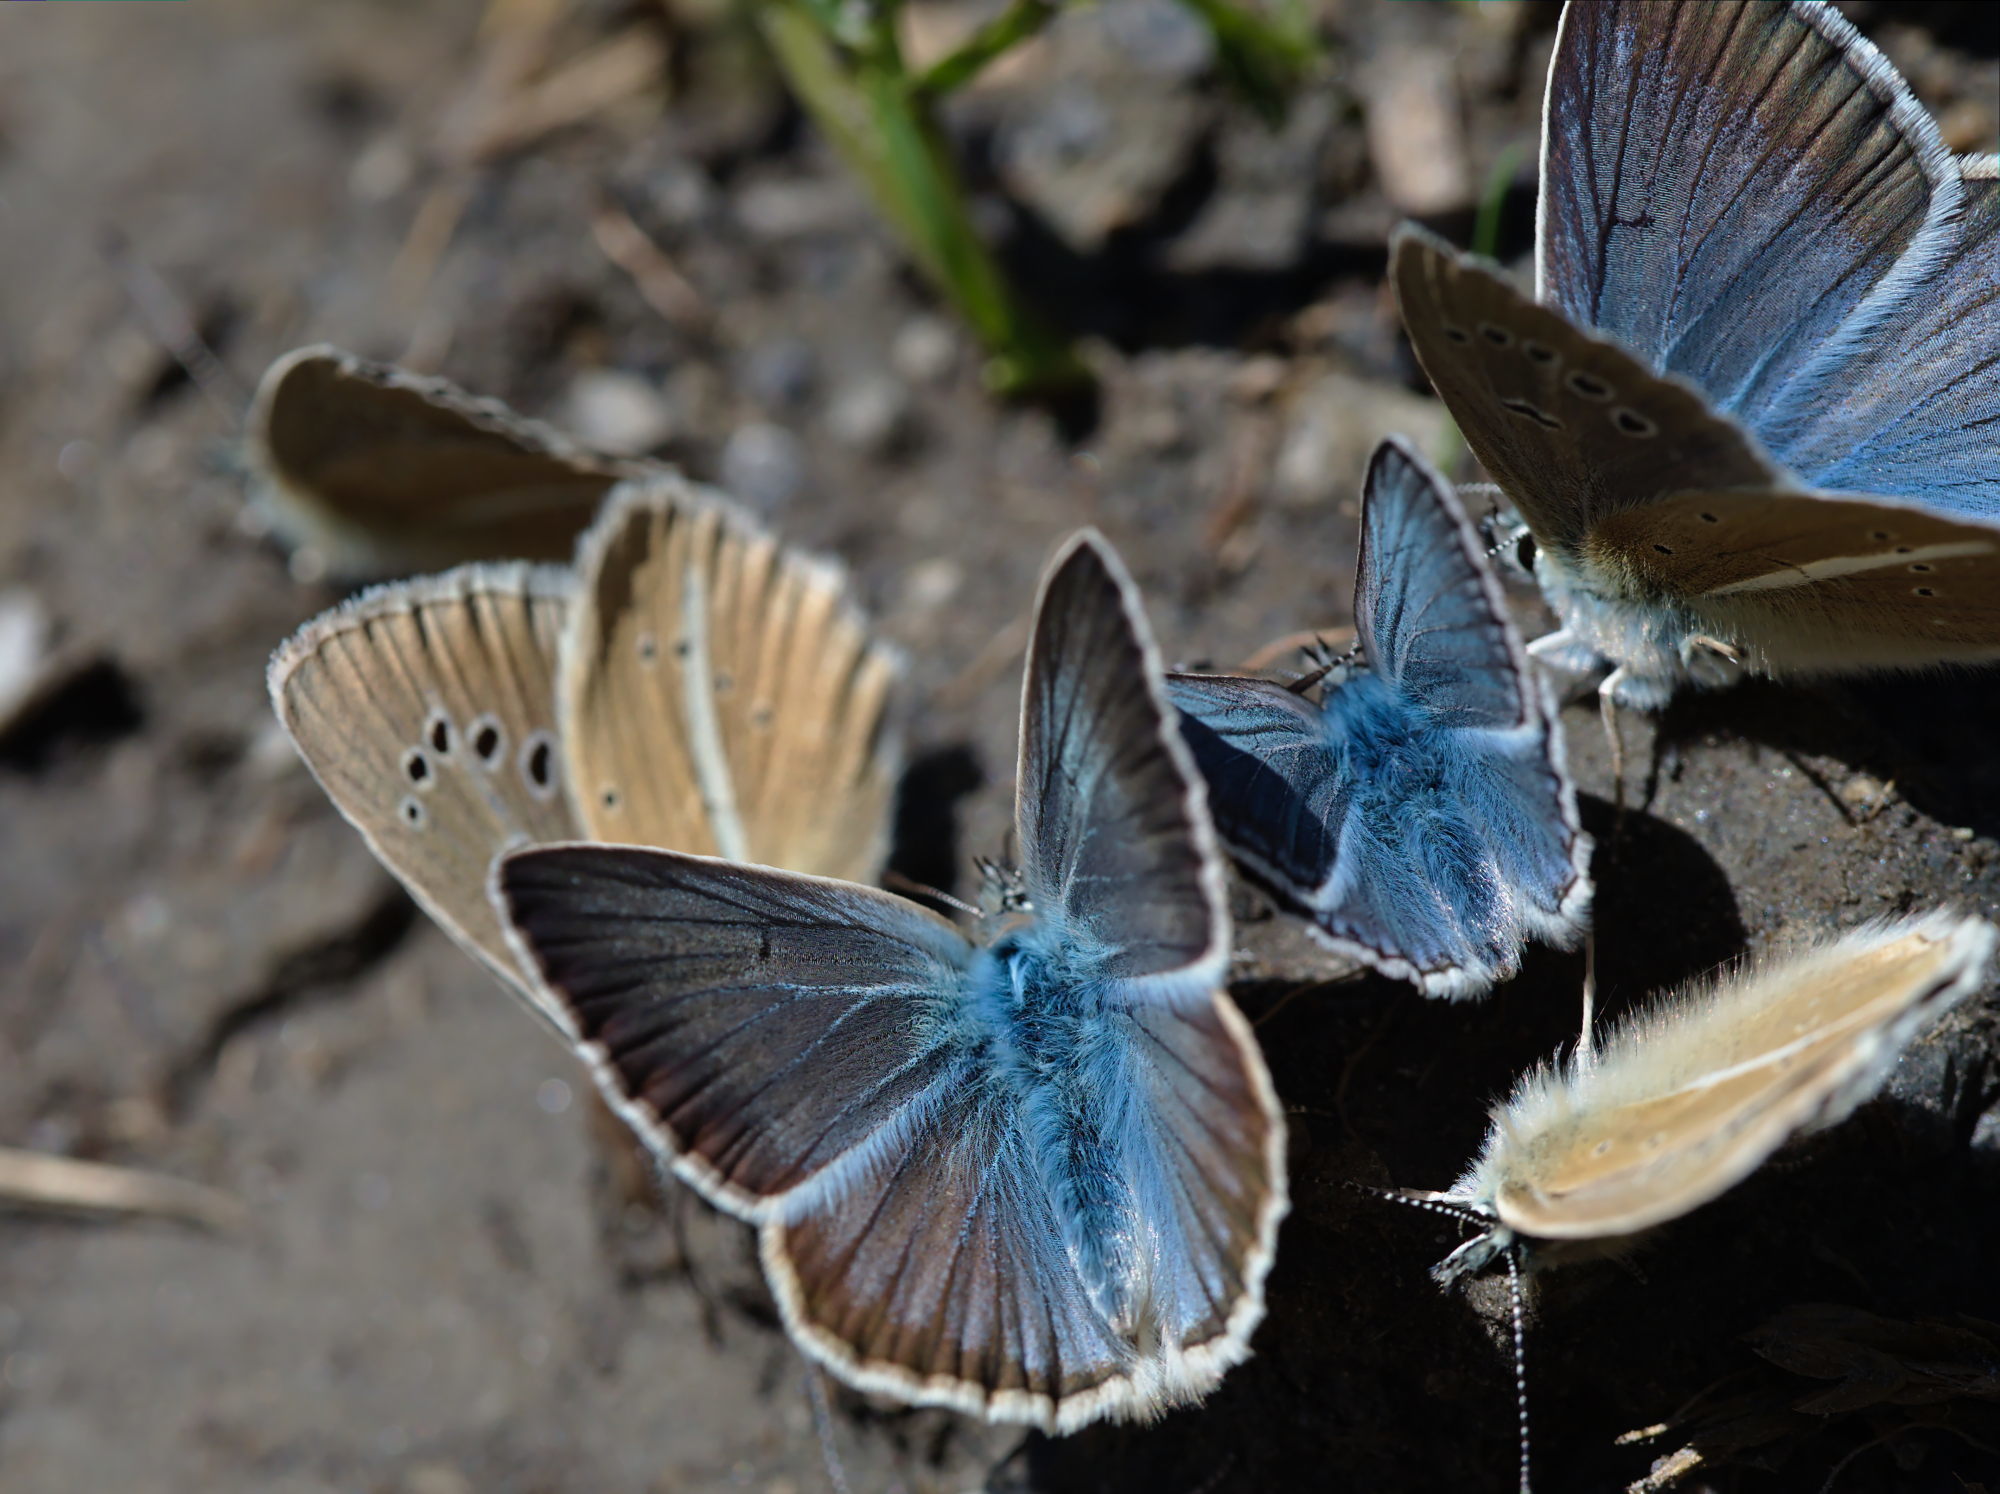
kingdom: Animalia
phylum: Arthropoda
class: Insecta
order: Lepidoptera
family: Lycaenidae
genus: Agrodiaetus
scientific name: Agrodiaetus damon
